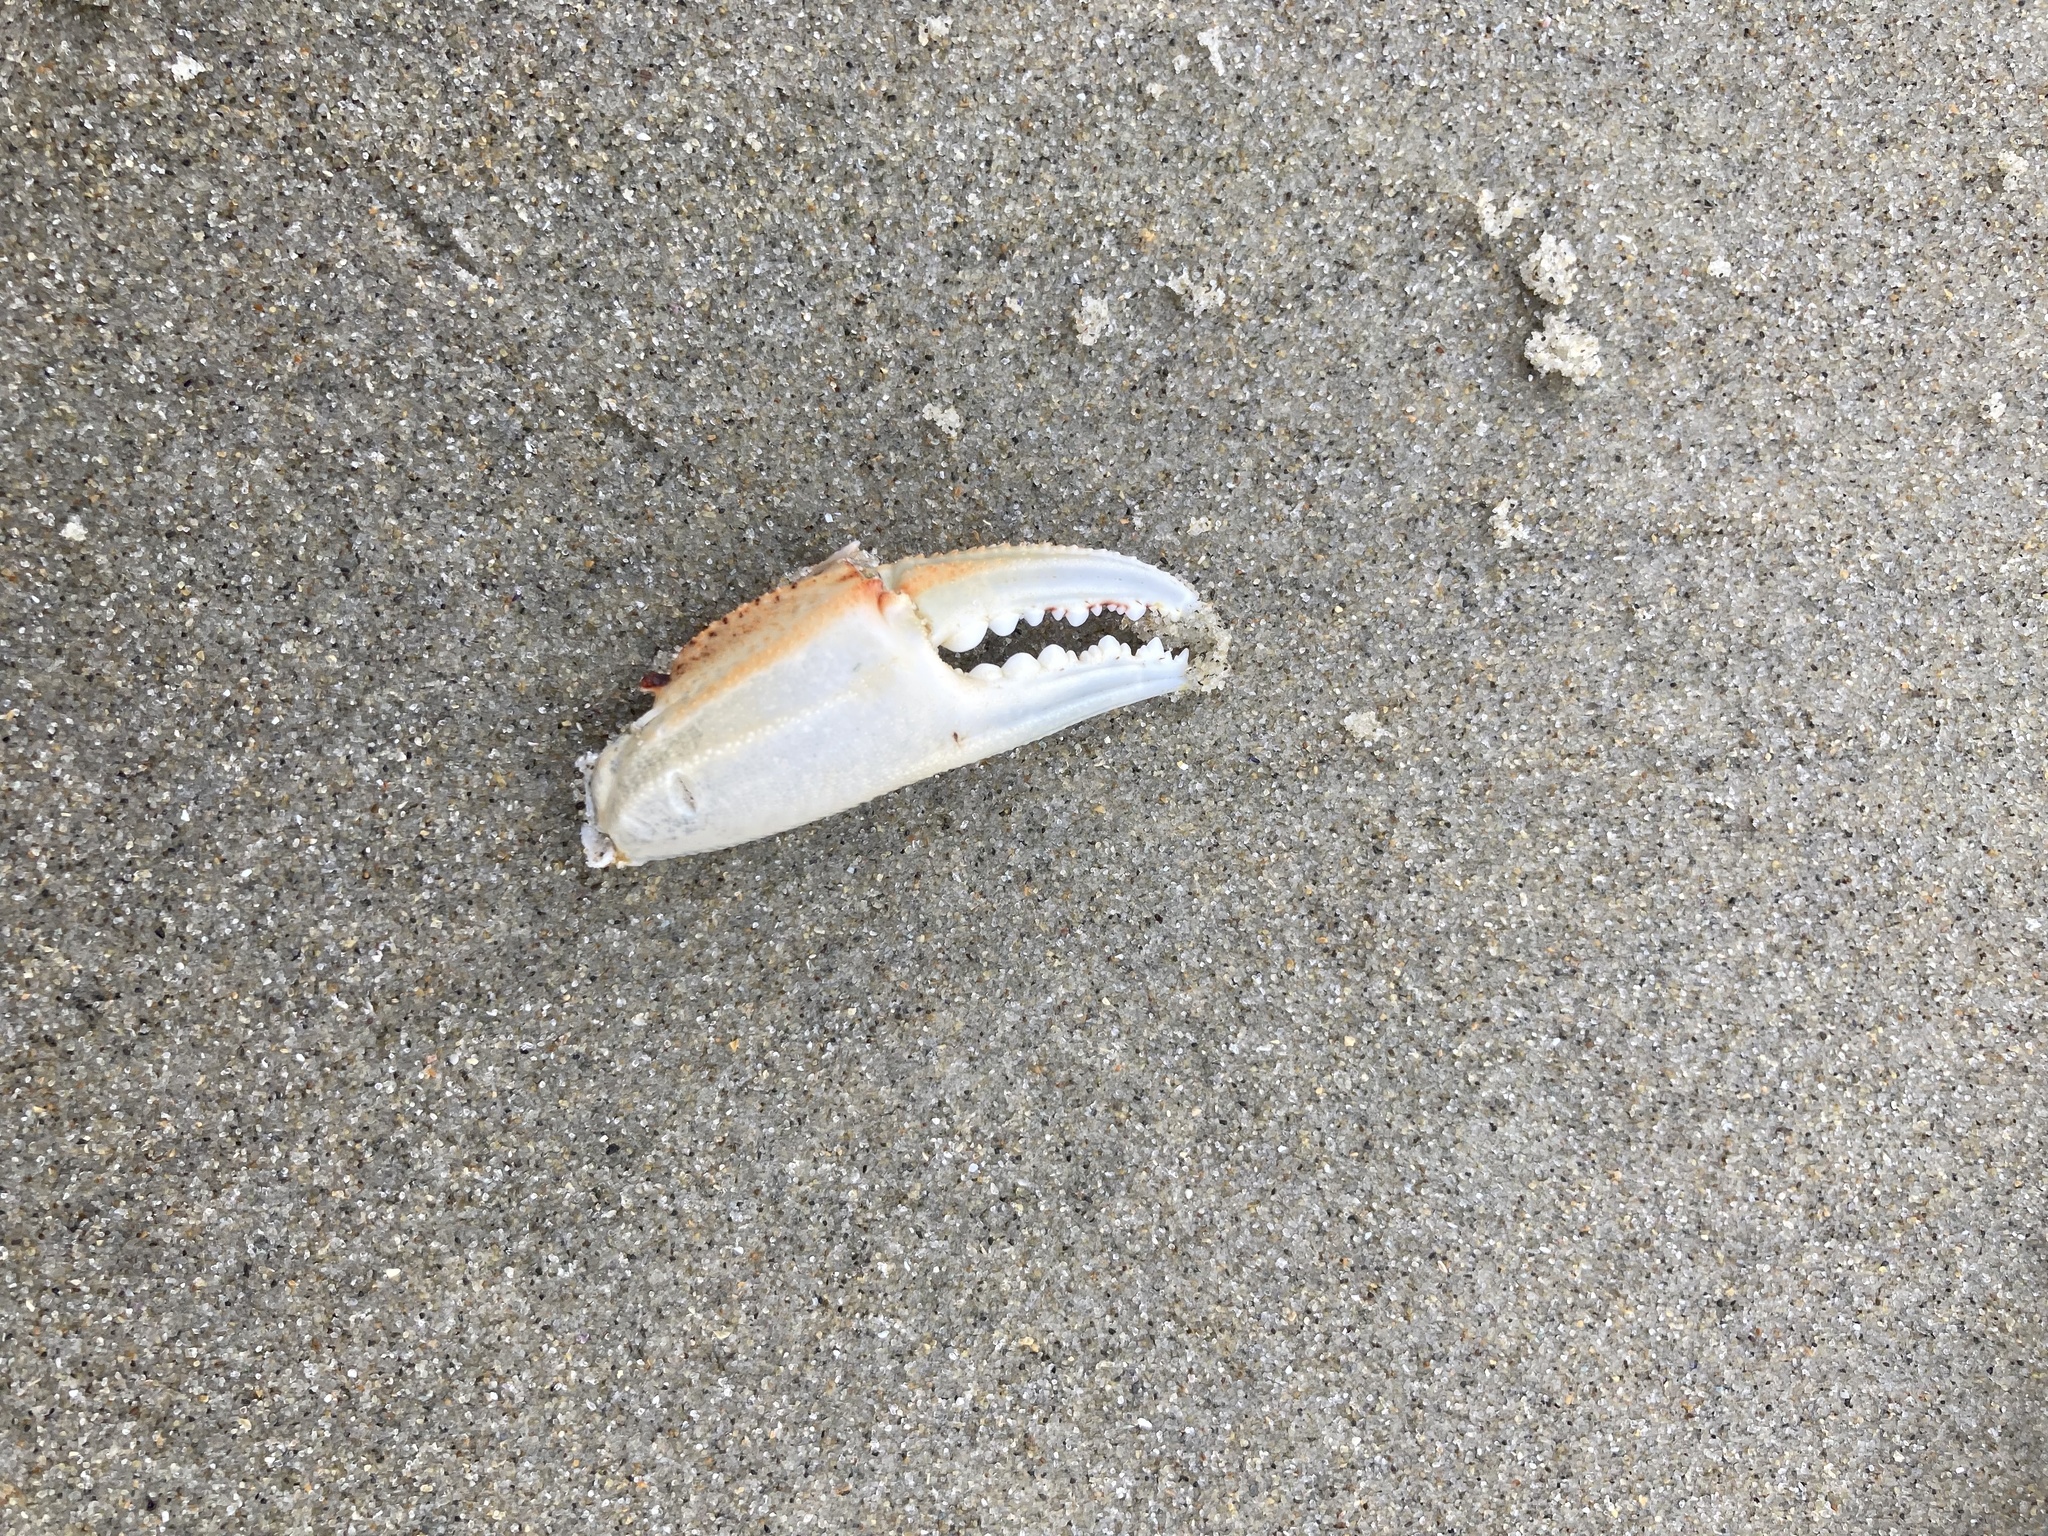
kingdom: Animalia
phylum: Arthropoda
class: Malacostraca
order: Decapoda
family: Ovalipidae
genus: Ovalipes
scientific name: Ovalipes catharus
